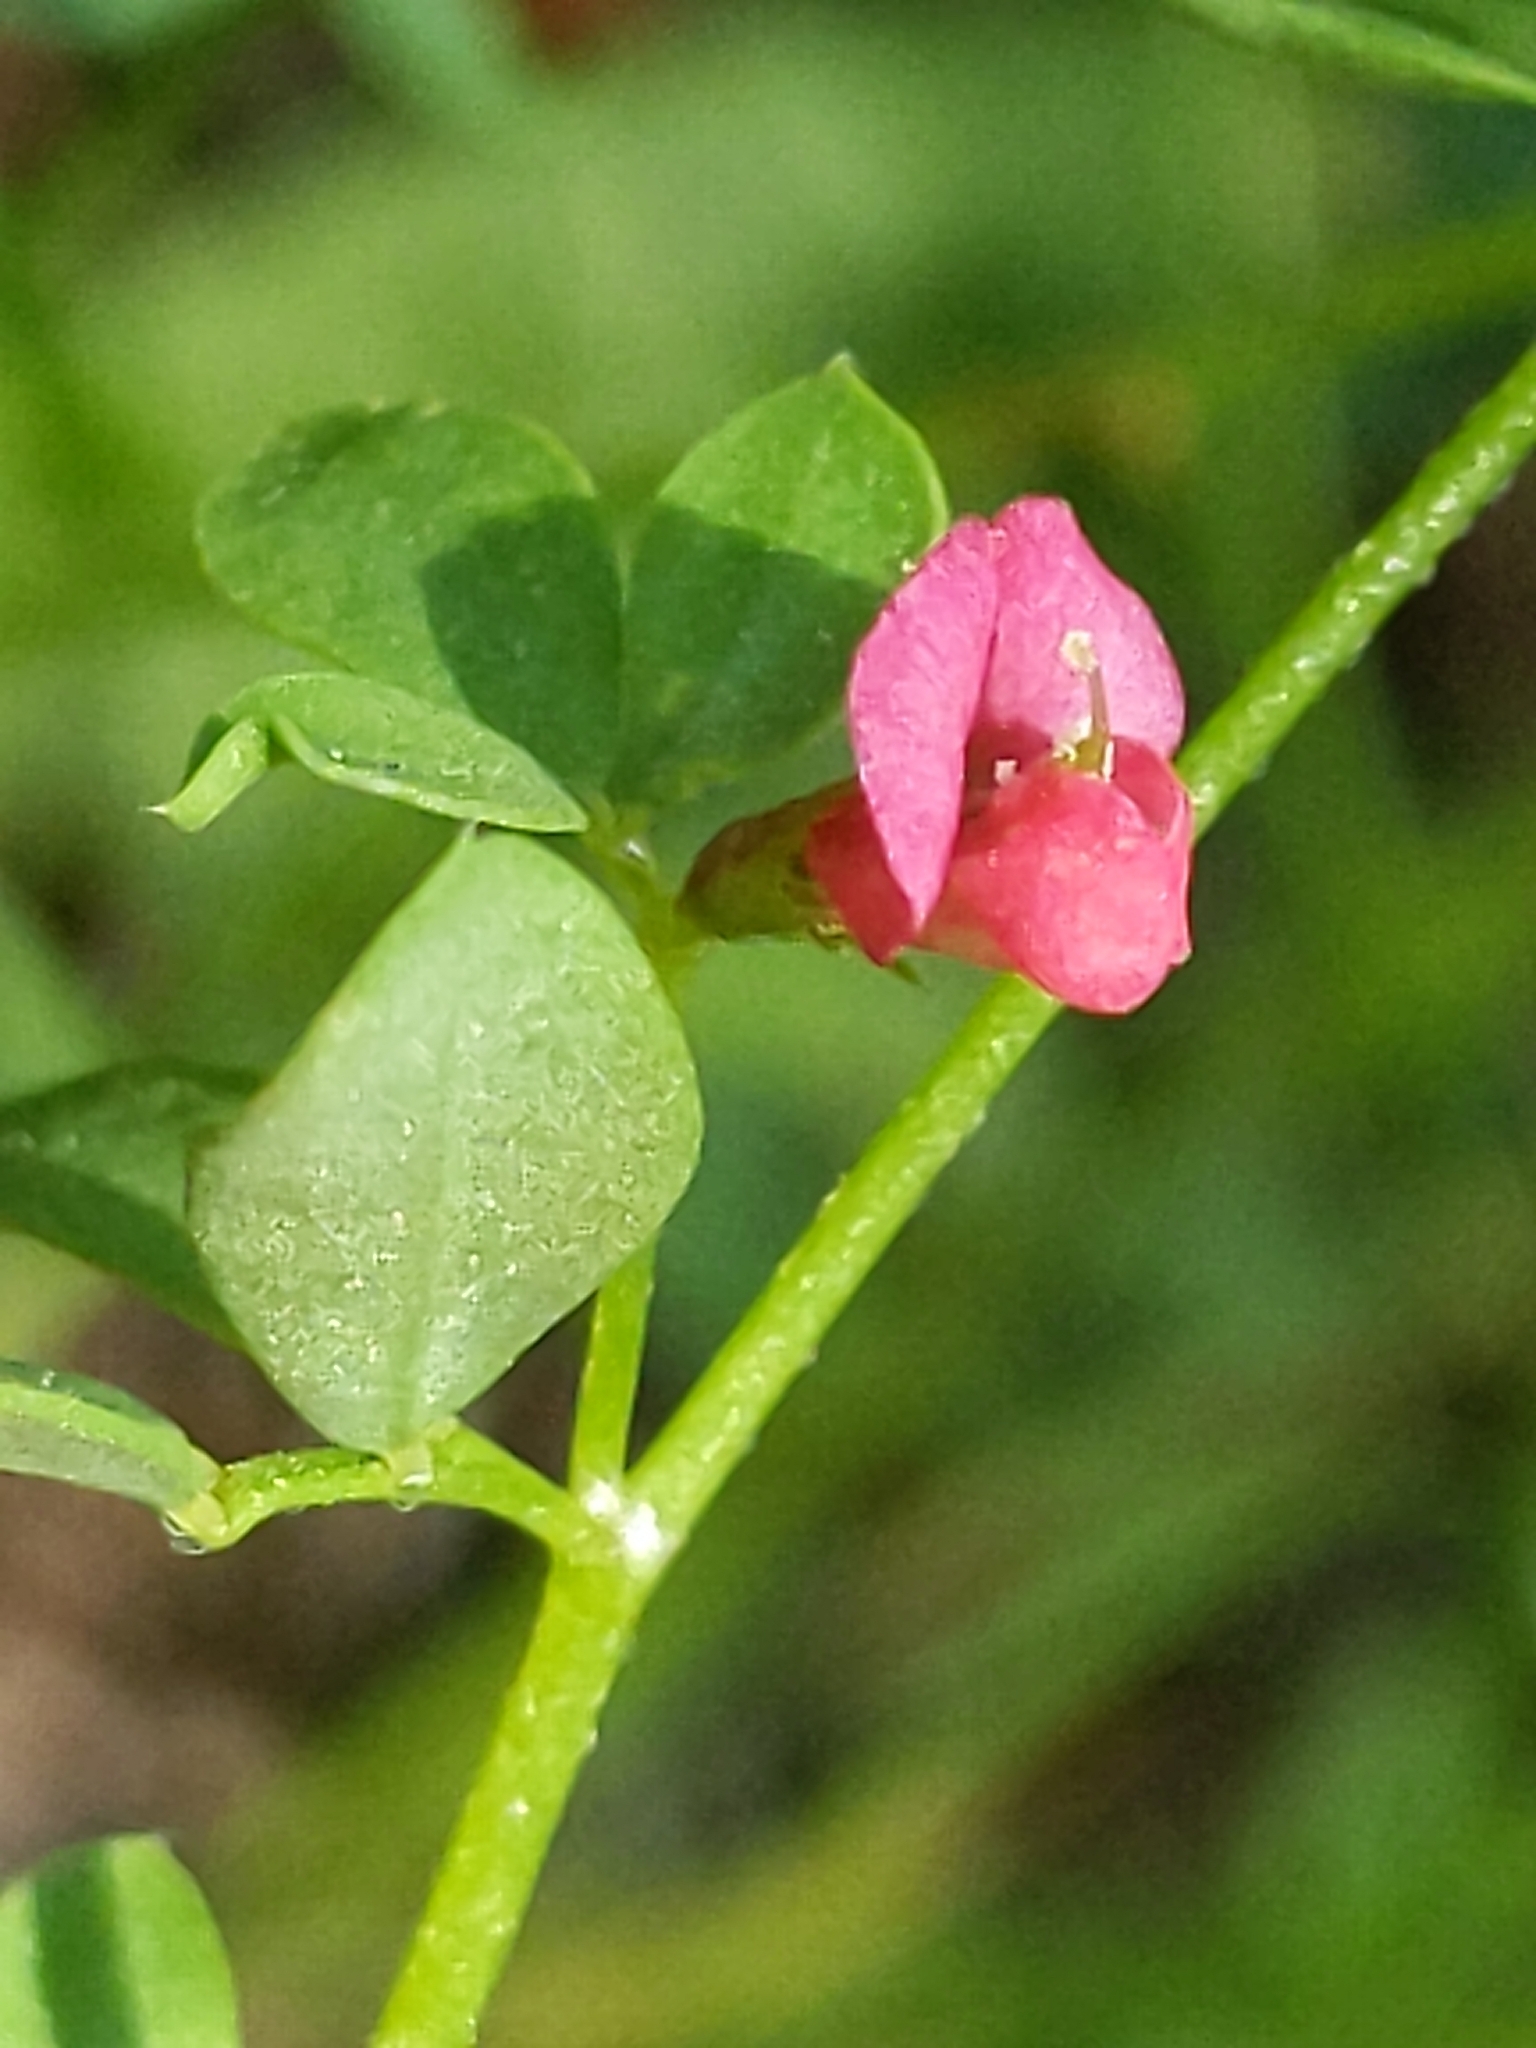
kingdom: Plantae
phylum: Tracheophyta
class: Magnoliopsida
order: Fabales
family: Fabaceae
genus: Acmispon
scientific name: Acmispon parviflorus
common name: Desert deer-vetch
